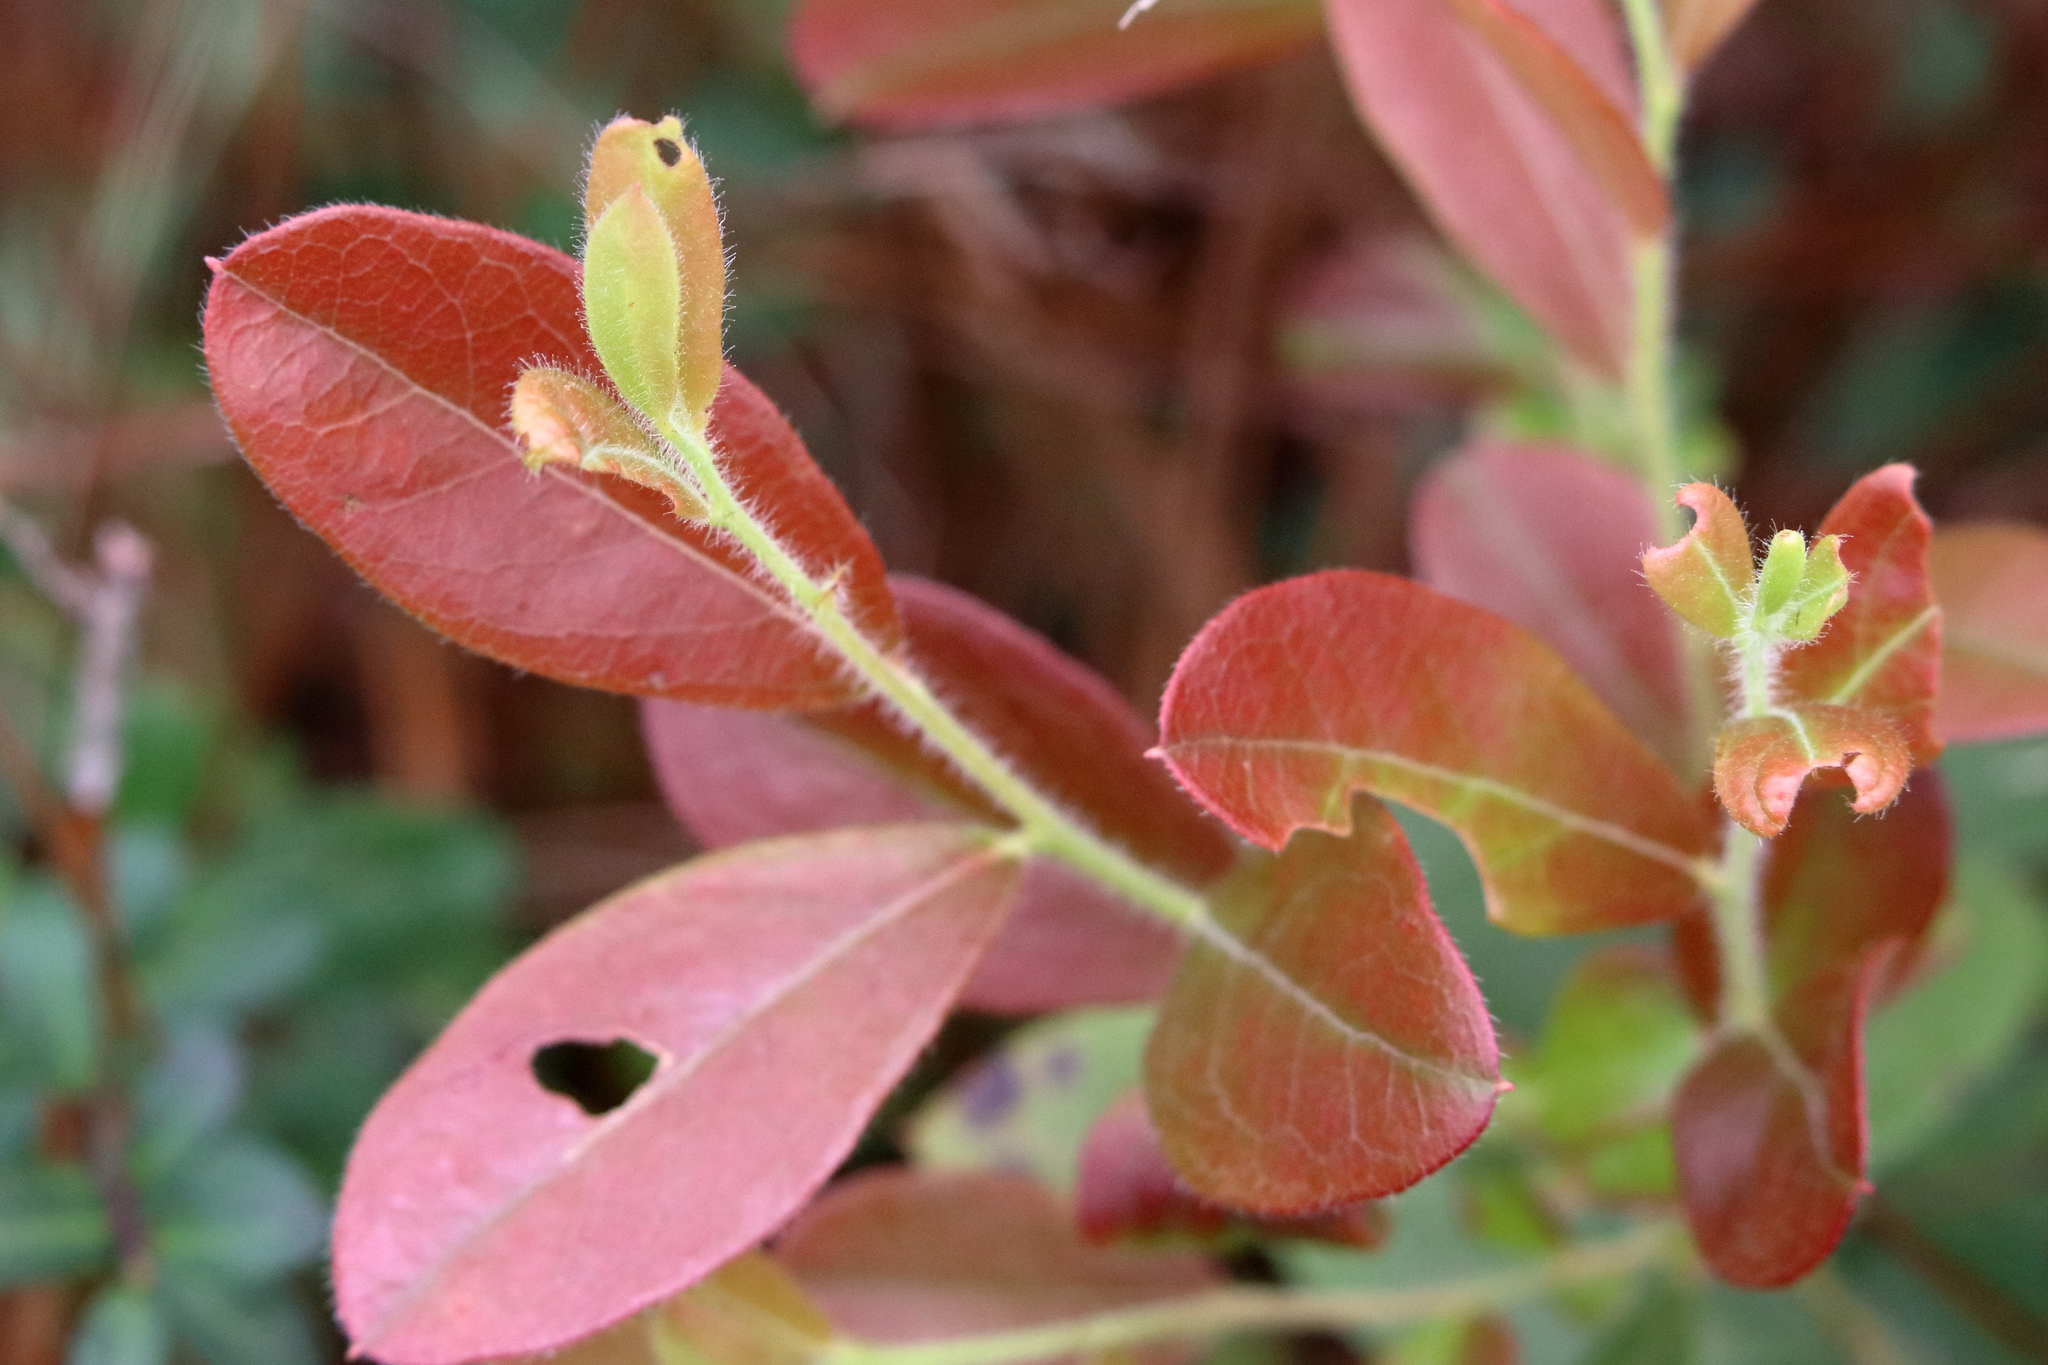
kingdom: Plantae
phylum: Tracheophyta
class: Magnoliopsida
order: Ericales
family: Ericaceae
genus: Gaylussacia
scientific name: Gaylussacia mosieri
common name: Hirsute huckleberry
